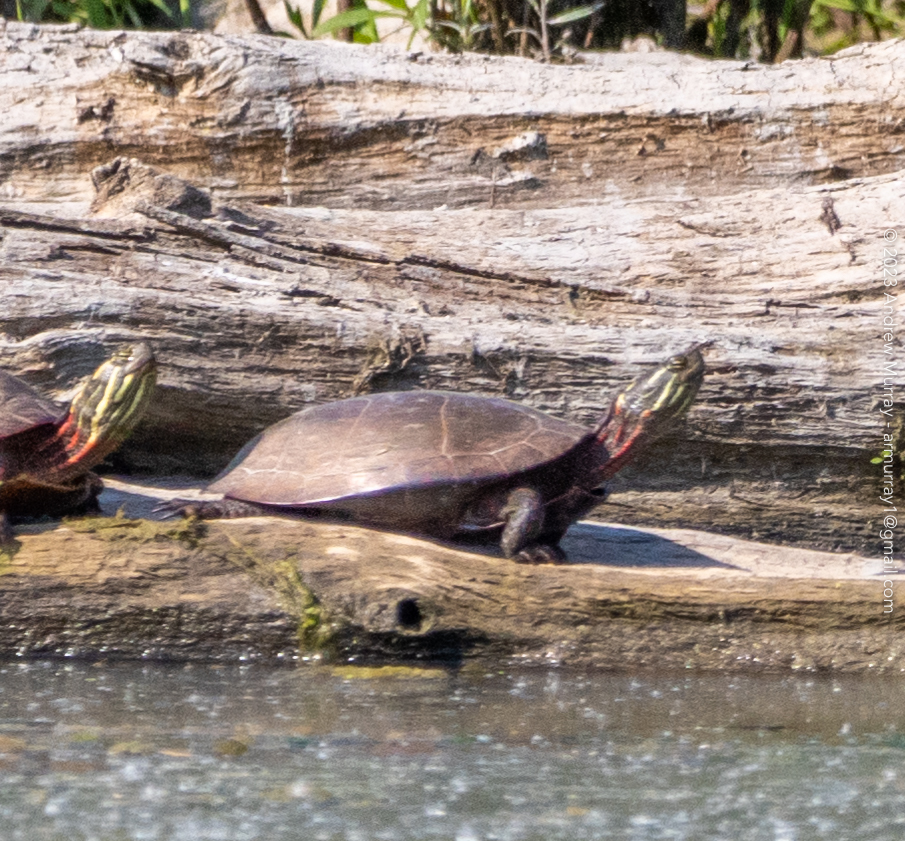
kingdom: Animalia
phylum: Chordata
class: Testudines
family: Emydidae
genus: Chrysemys
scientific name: Chrysemys picta
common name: Painted turtle
